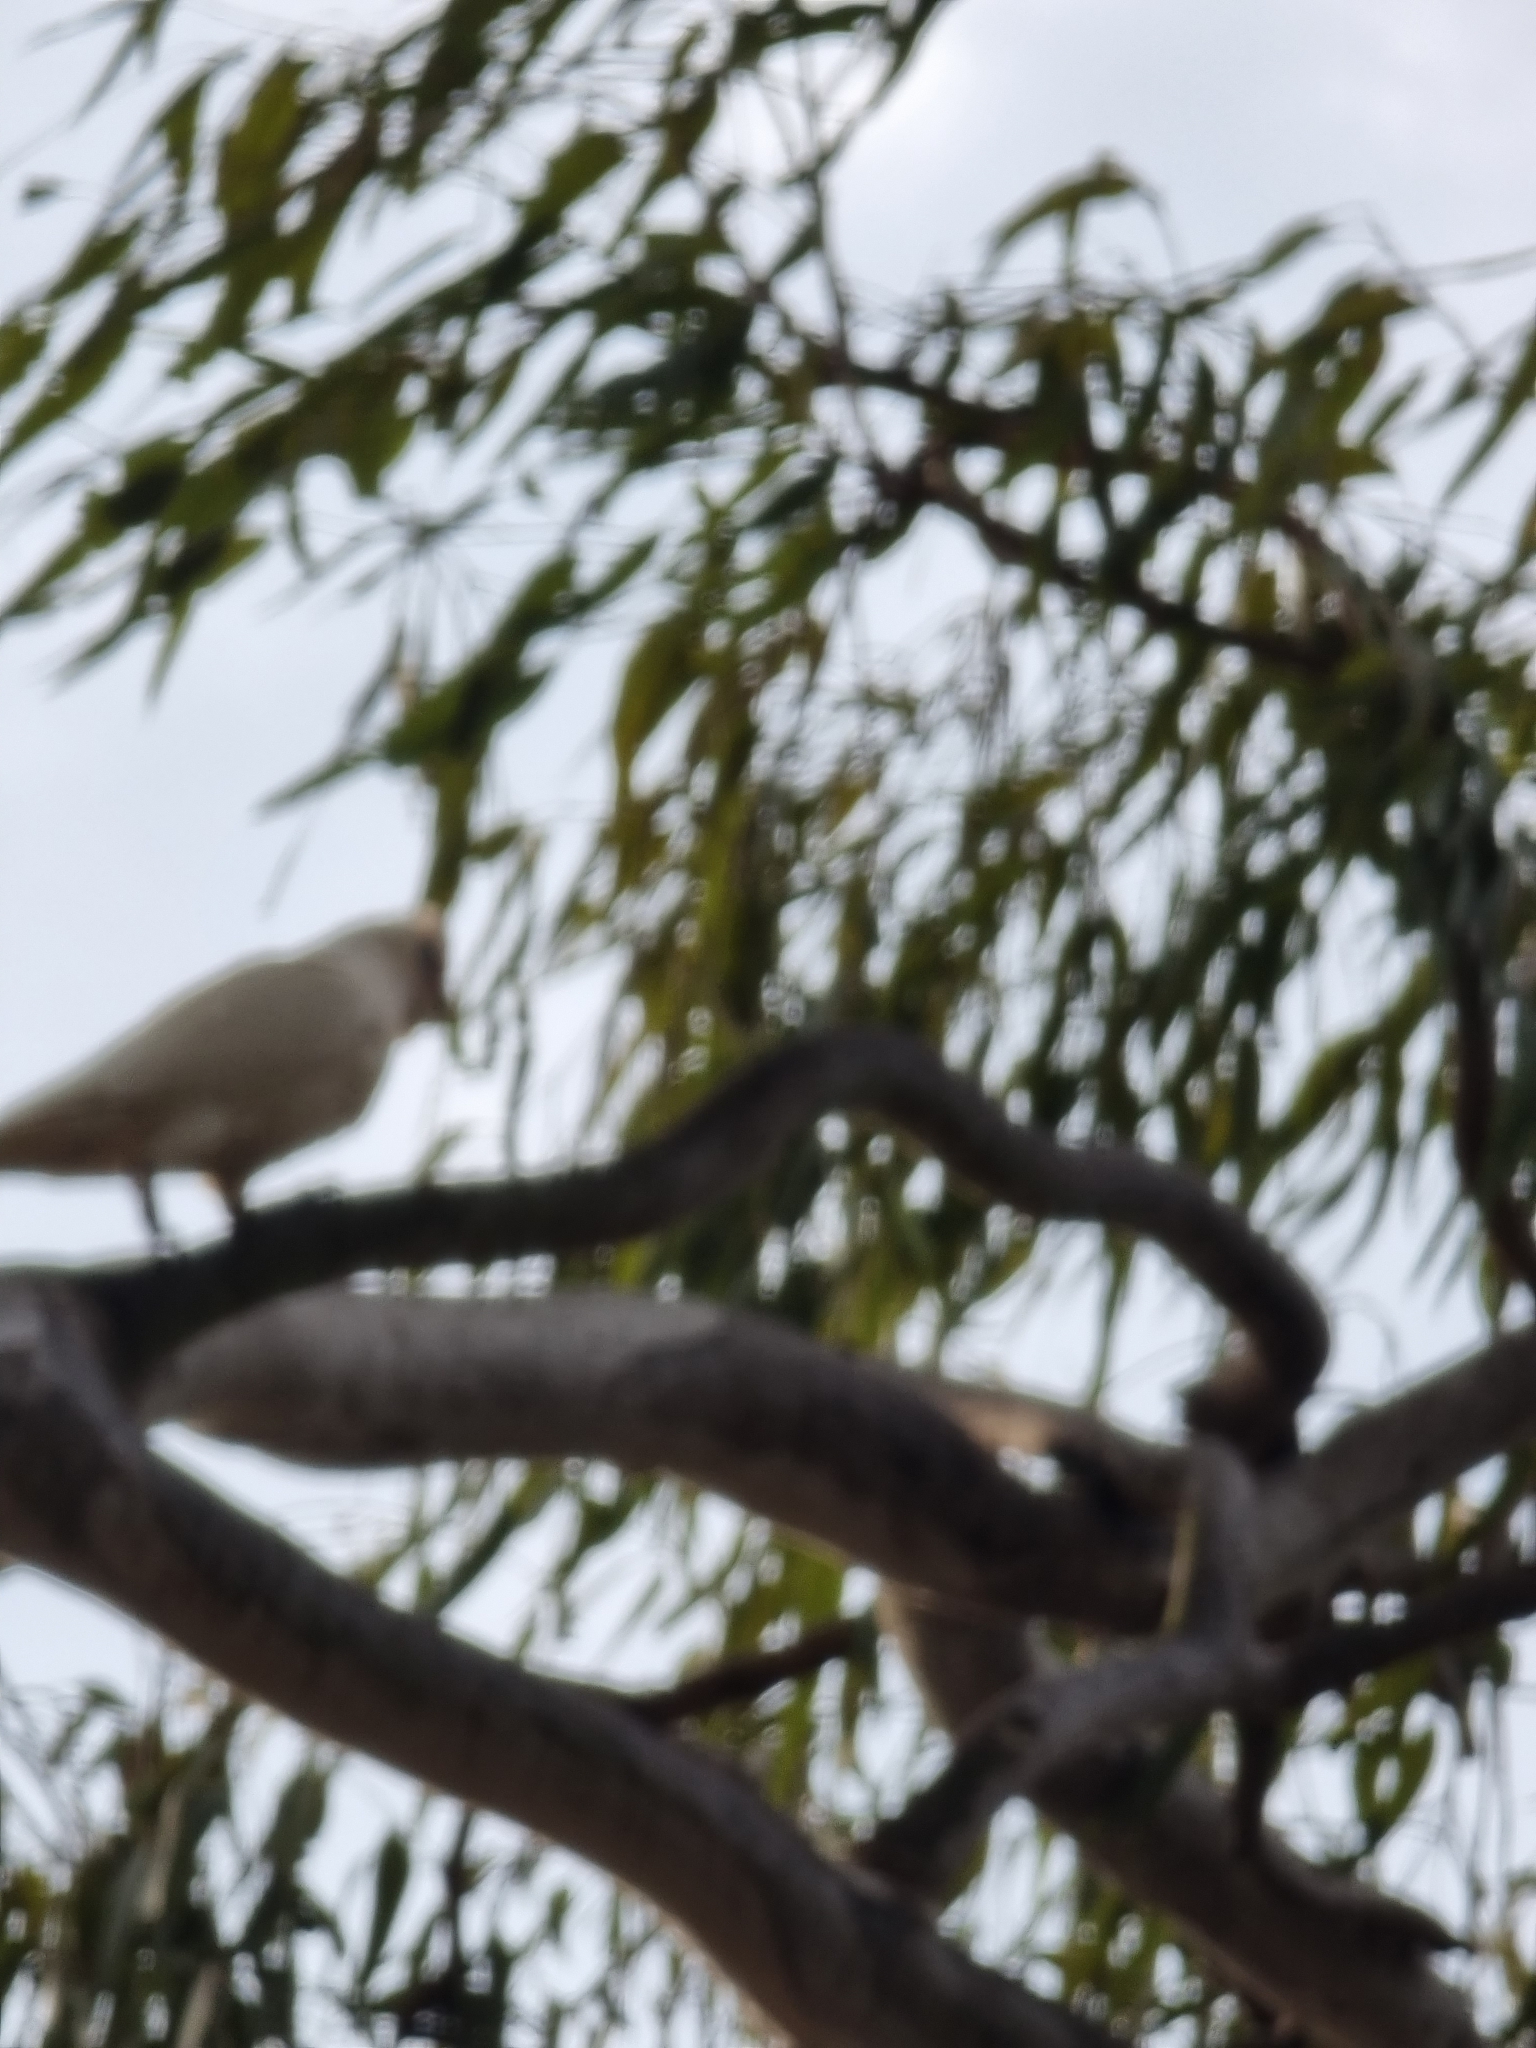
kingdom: Animalia
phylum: Chordata
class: Aves
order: Psittaciformes
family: Psittacidae
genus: Cacatua
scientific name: Cacatua sanguinea
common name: Little corella
